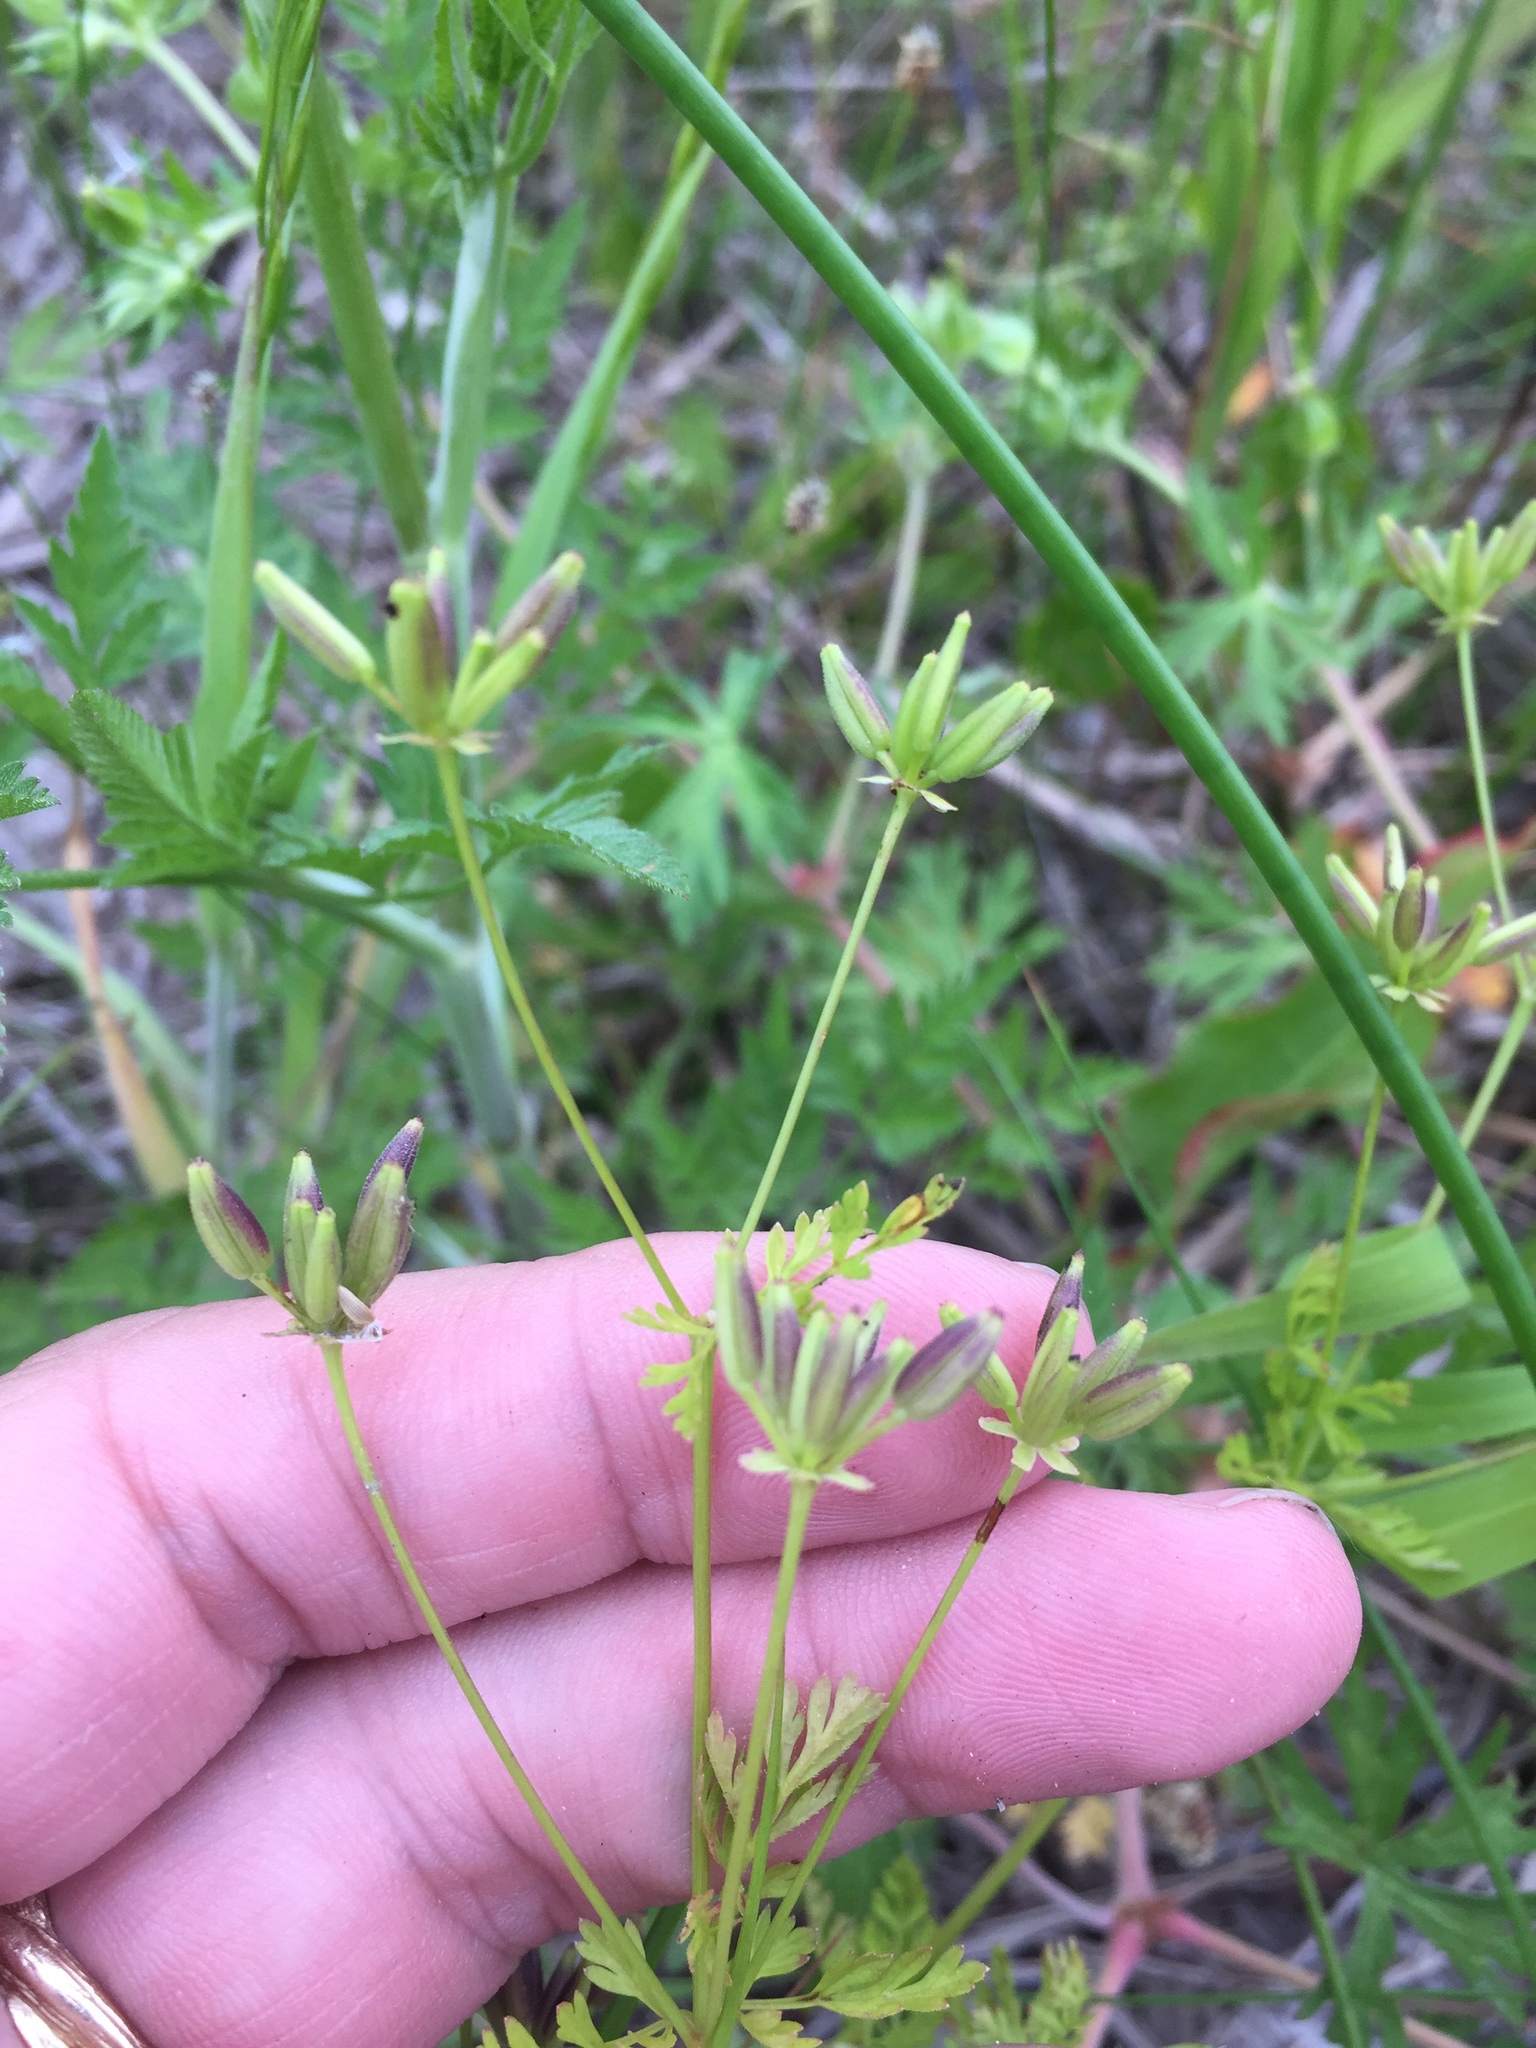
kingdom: Plantae
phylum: Tracheophyta
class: Magnoliopsida
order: Apiales
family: Apiaceae
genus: Chaerophyllum
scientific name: Chaerophyllum tainturieri
